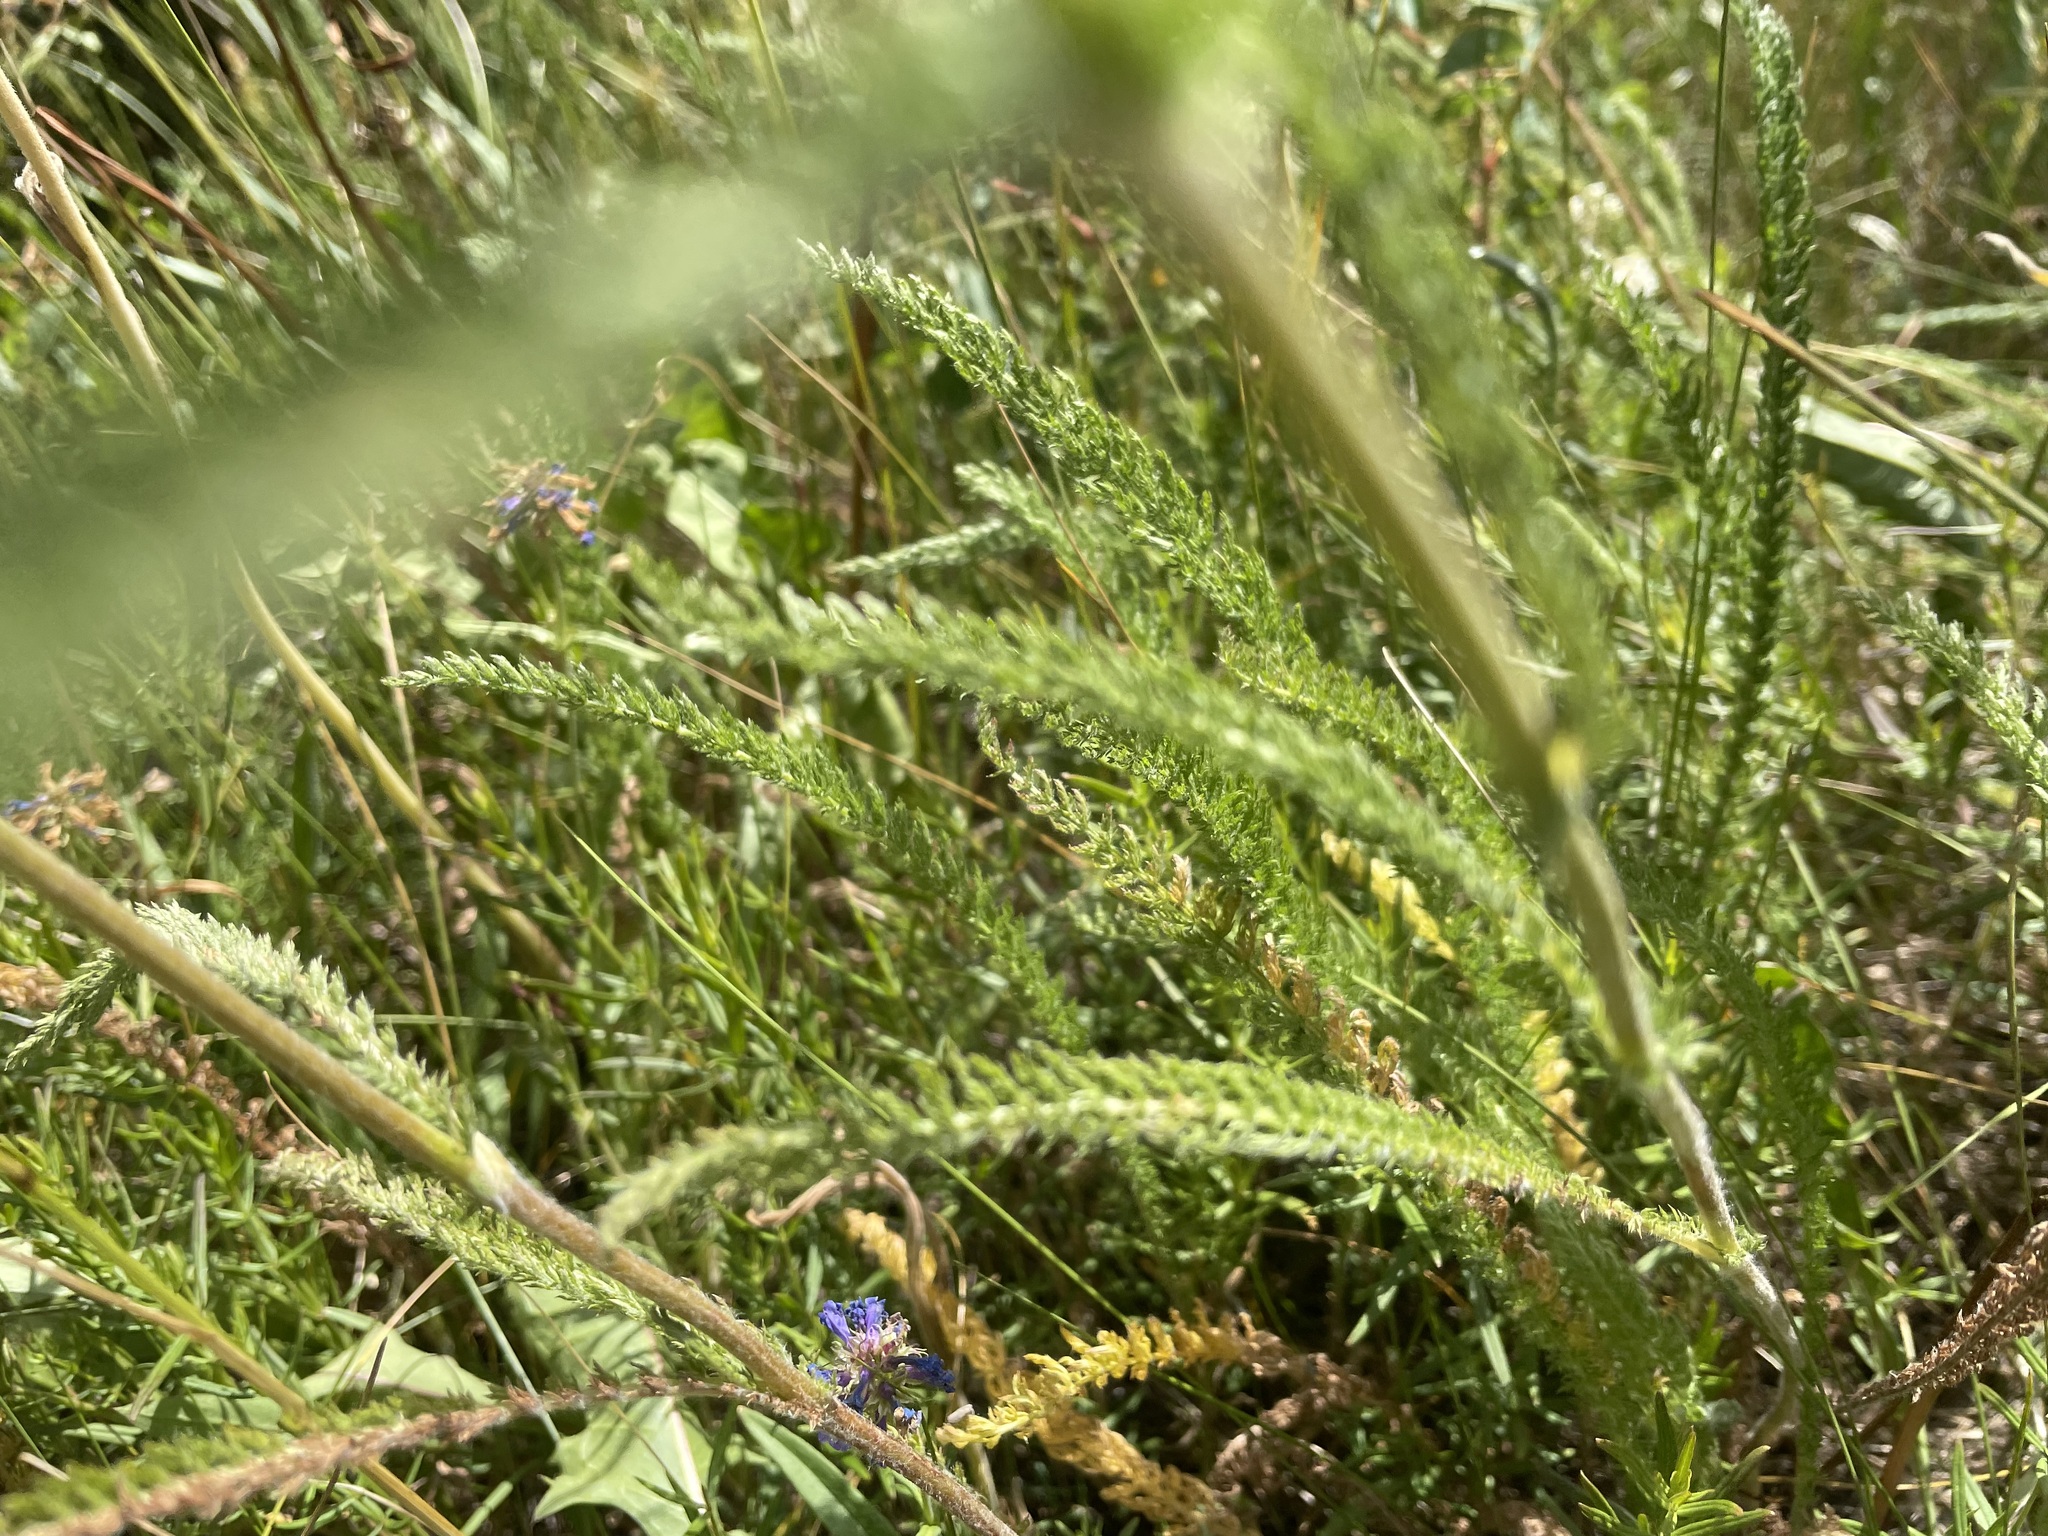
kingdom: Plantae
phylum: Tracheophyta
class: Magnoliopsida
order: Asterales
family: Asteraceae
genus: Achillea
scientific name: Achillea millefolium
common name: Yarrow
